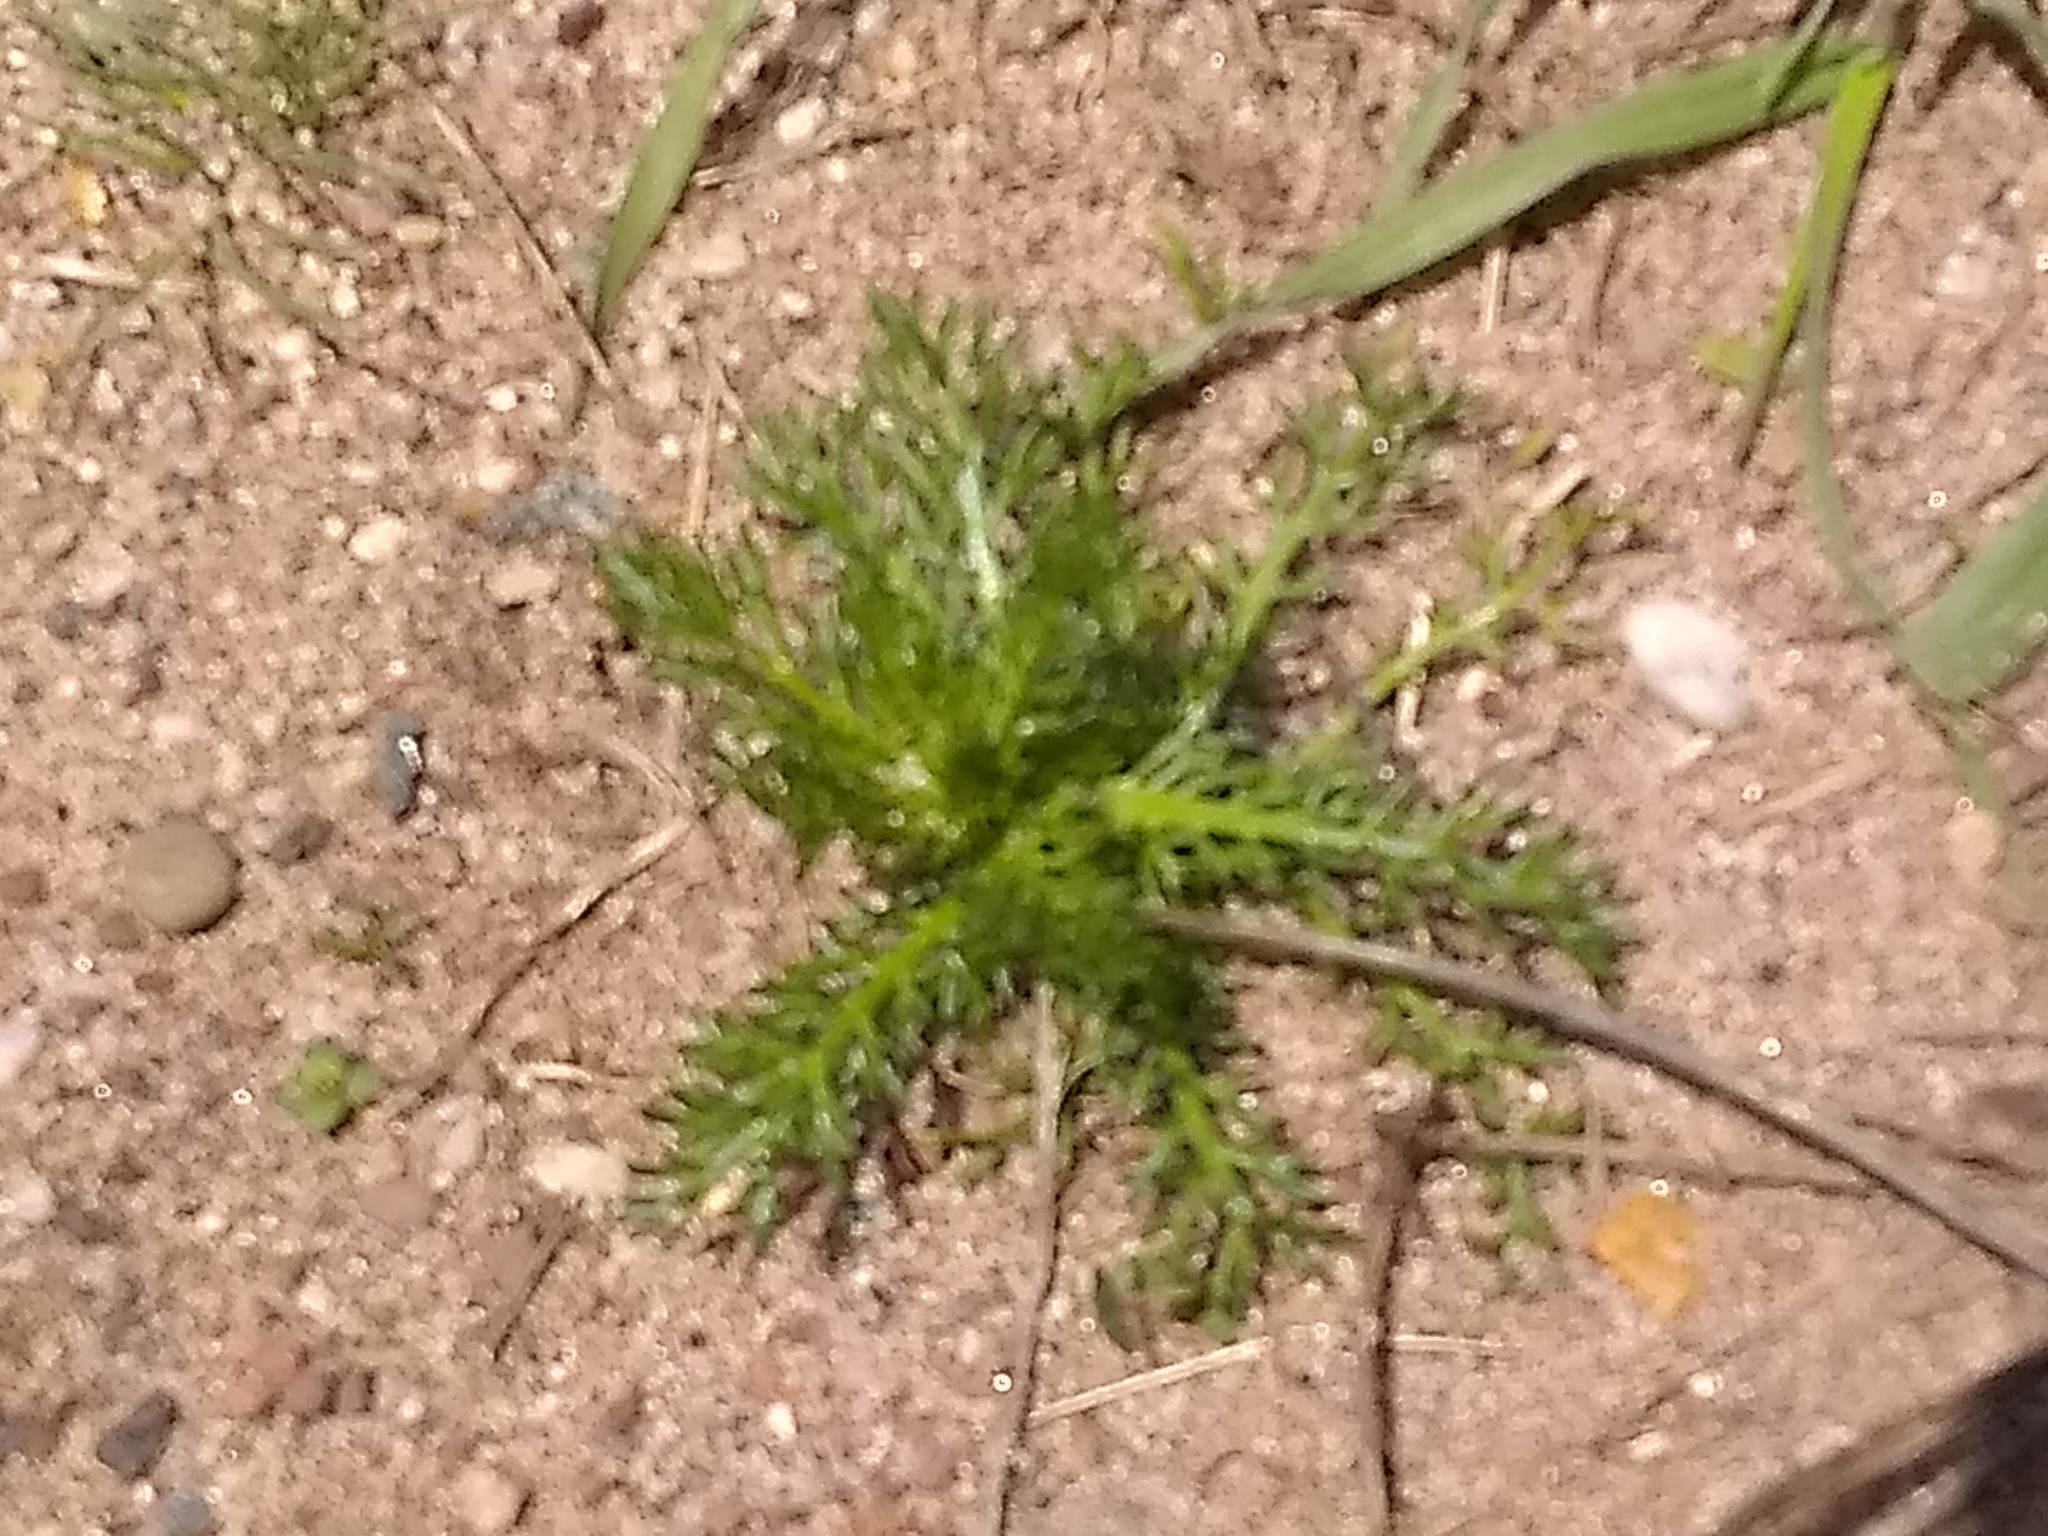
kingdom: Plantae
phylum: Tracheophyta
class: Magnoliopsida
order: Asterales
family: Asteraceae
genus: Matricaria
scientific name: Matricaria discoidea
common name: Disc mayweed
